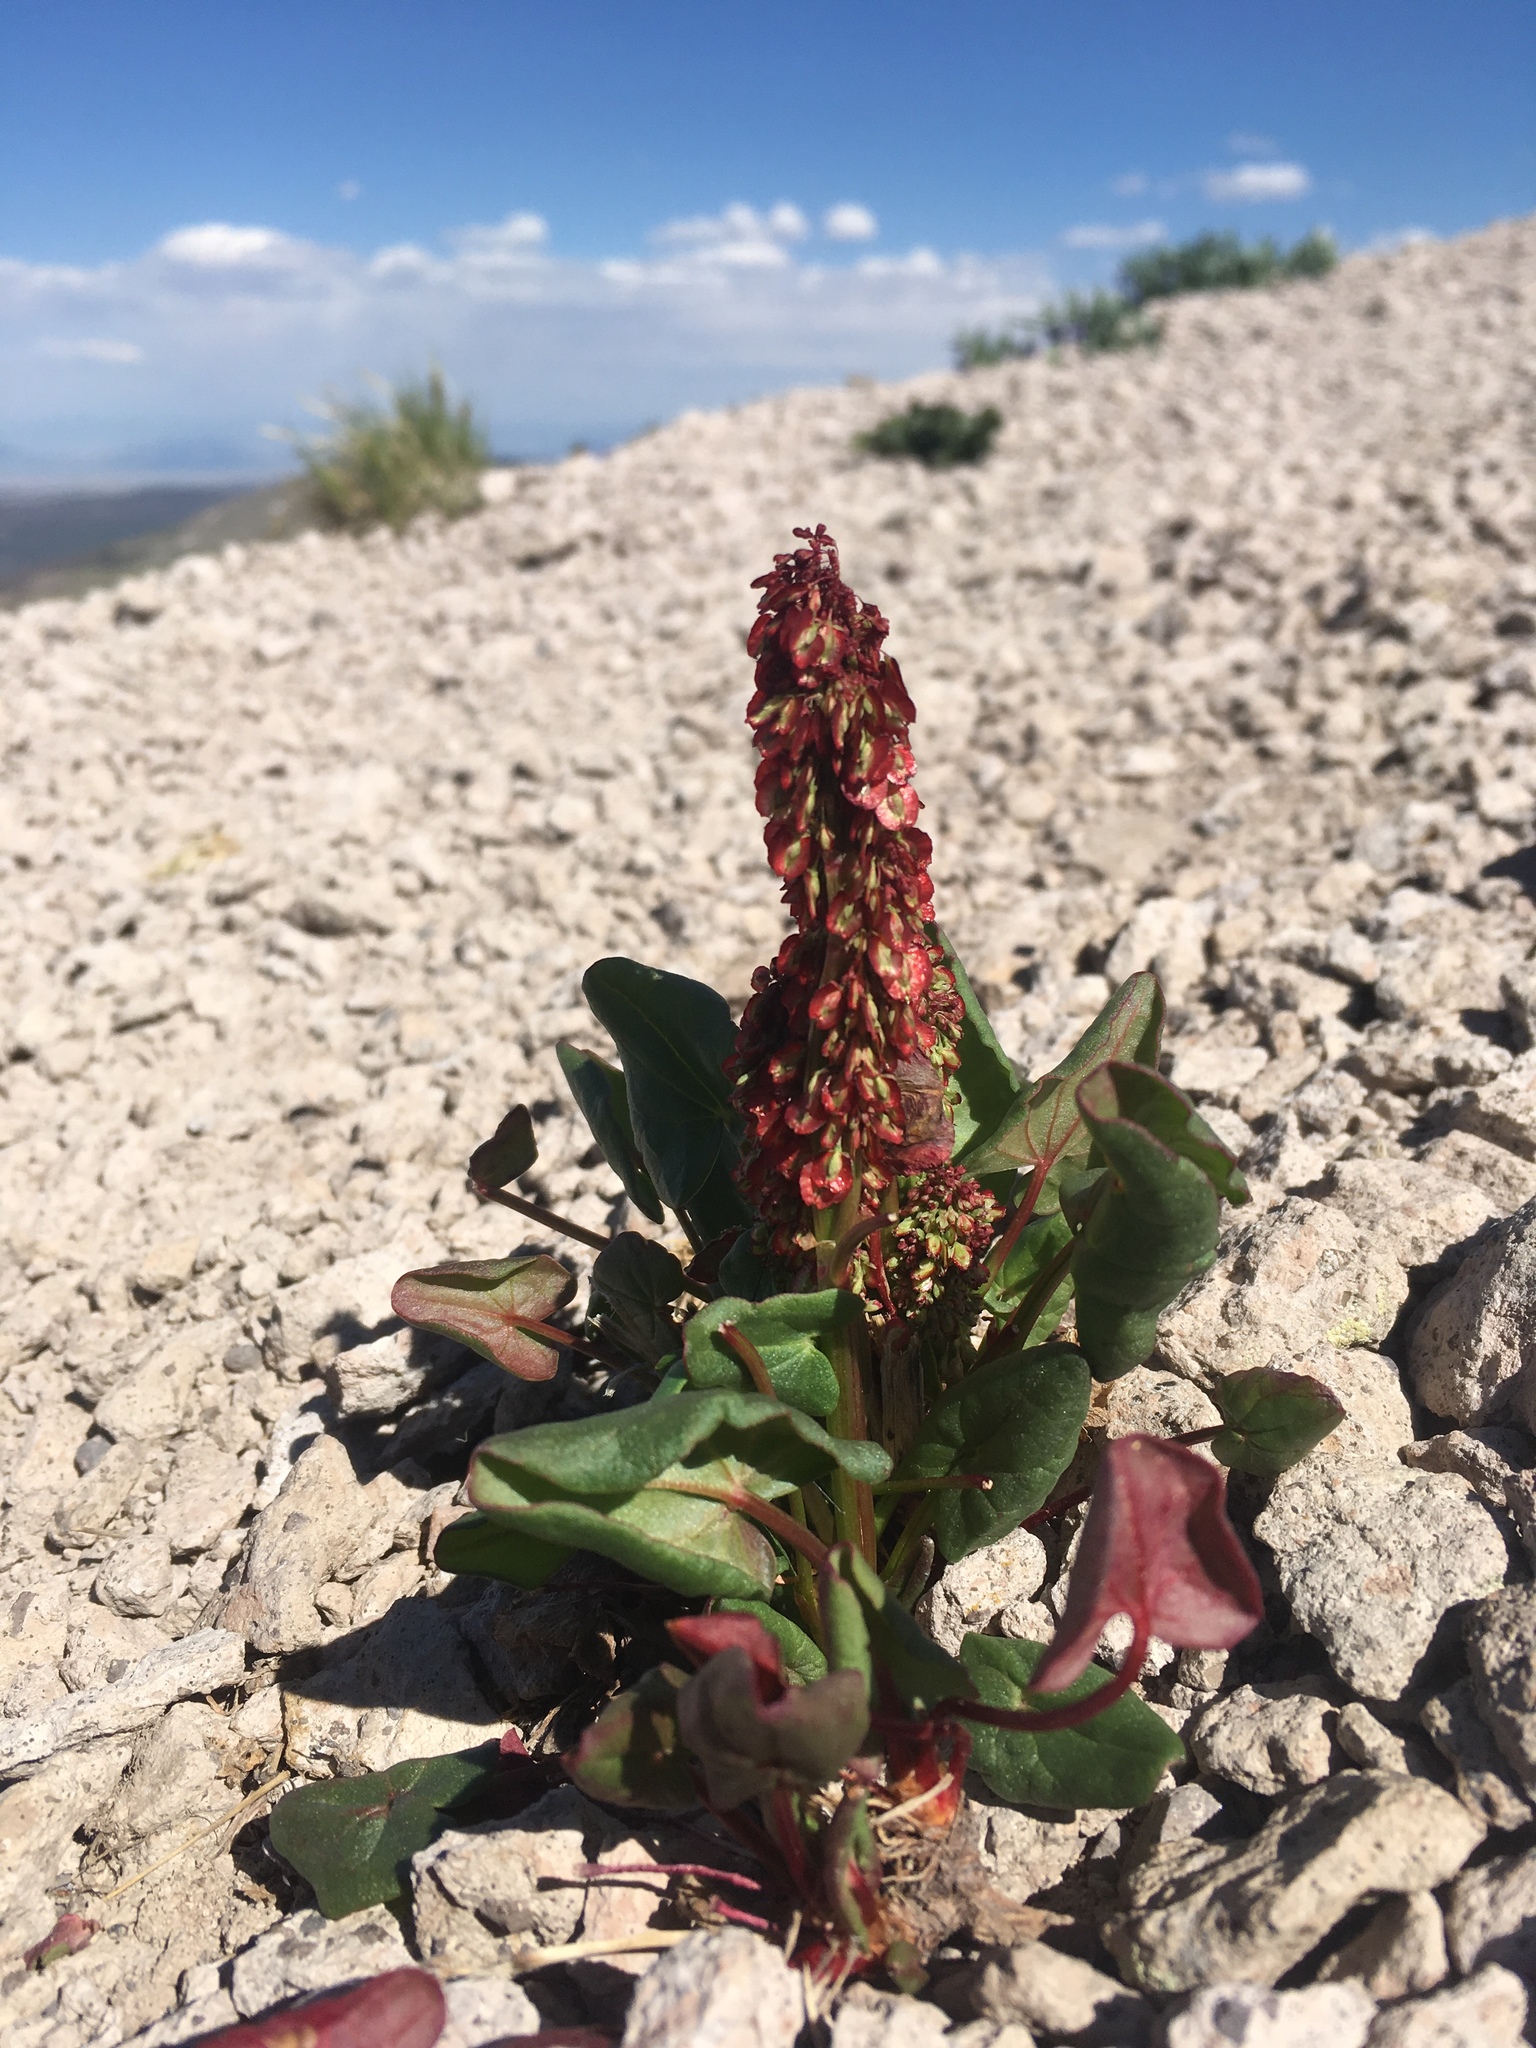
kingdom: Plantae
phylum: Tracheophyta
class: Magnoliopsida
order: Caryophyllales
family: Polygonaceae
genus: Oxyria
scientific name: Oxyria digyna
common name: Alpine mountain-sorrel
